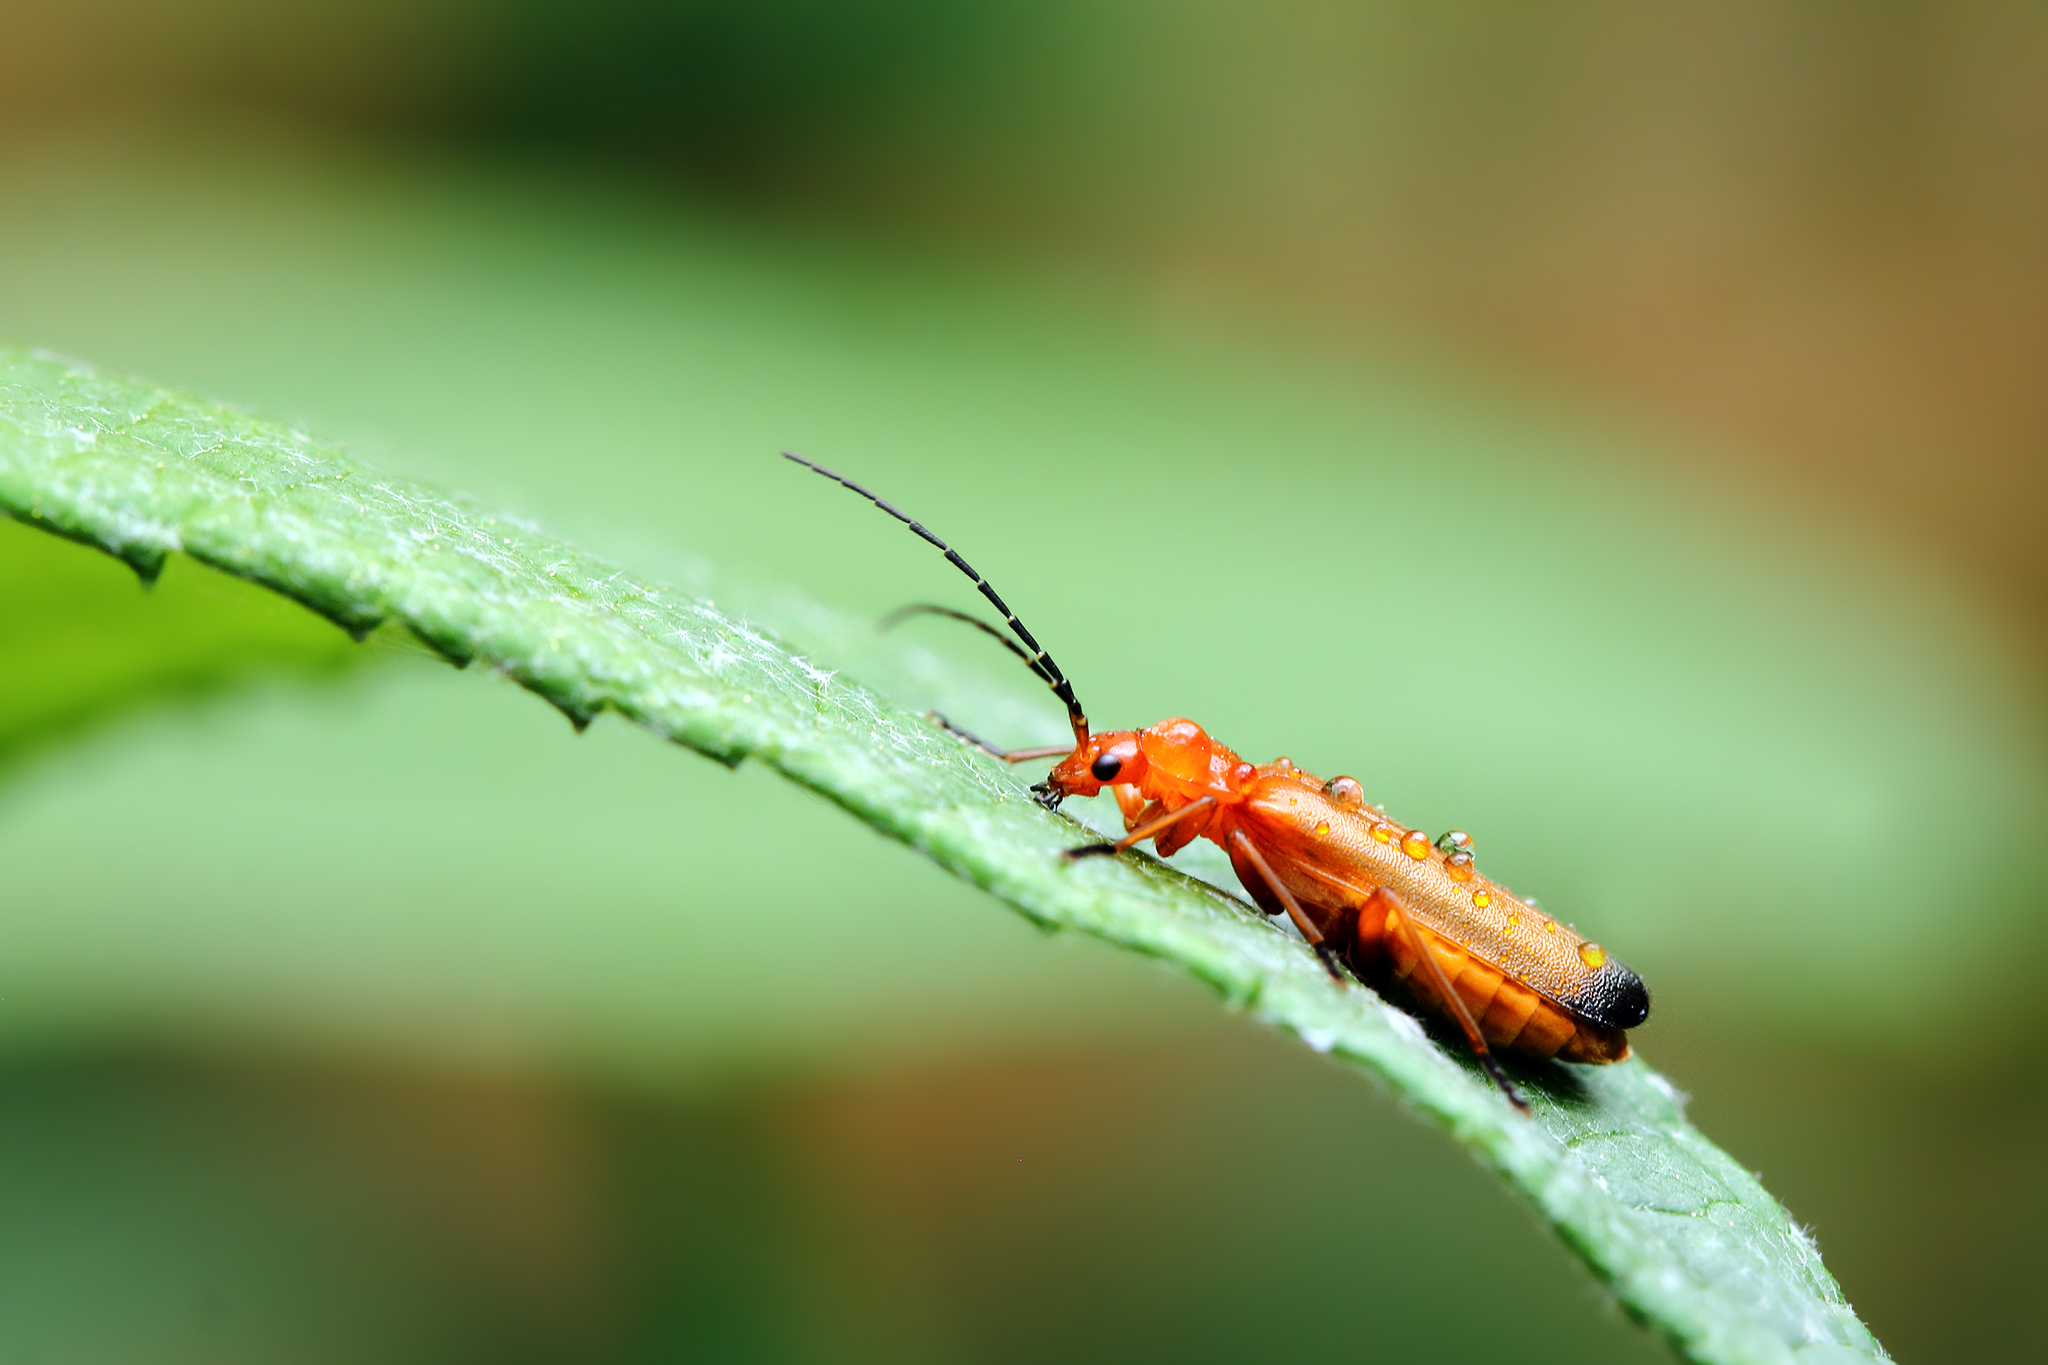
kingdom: Animalia
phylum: Arthropoda
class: Insecta
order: Coleoptera
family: Cantharidae
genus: Rhagonycha
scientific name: Rhagonycha fulva
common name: Common red soldier beetle
